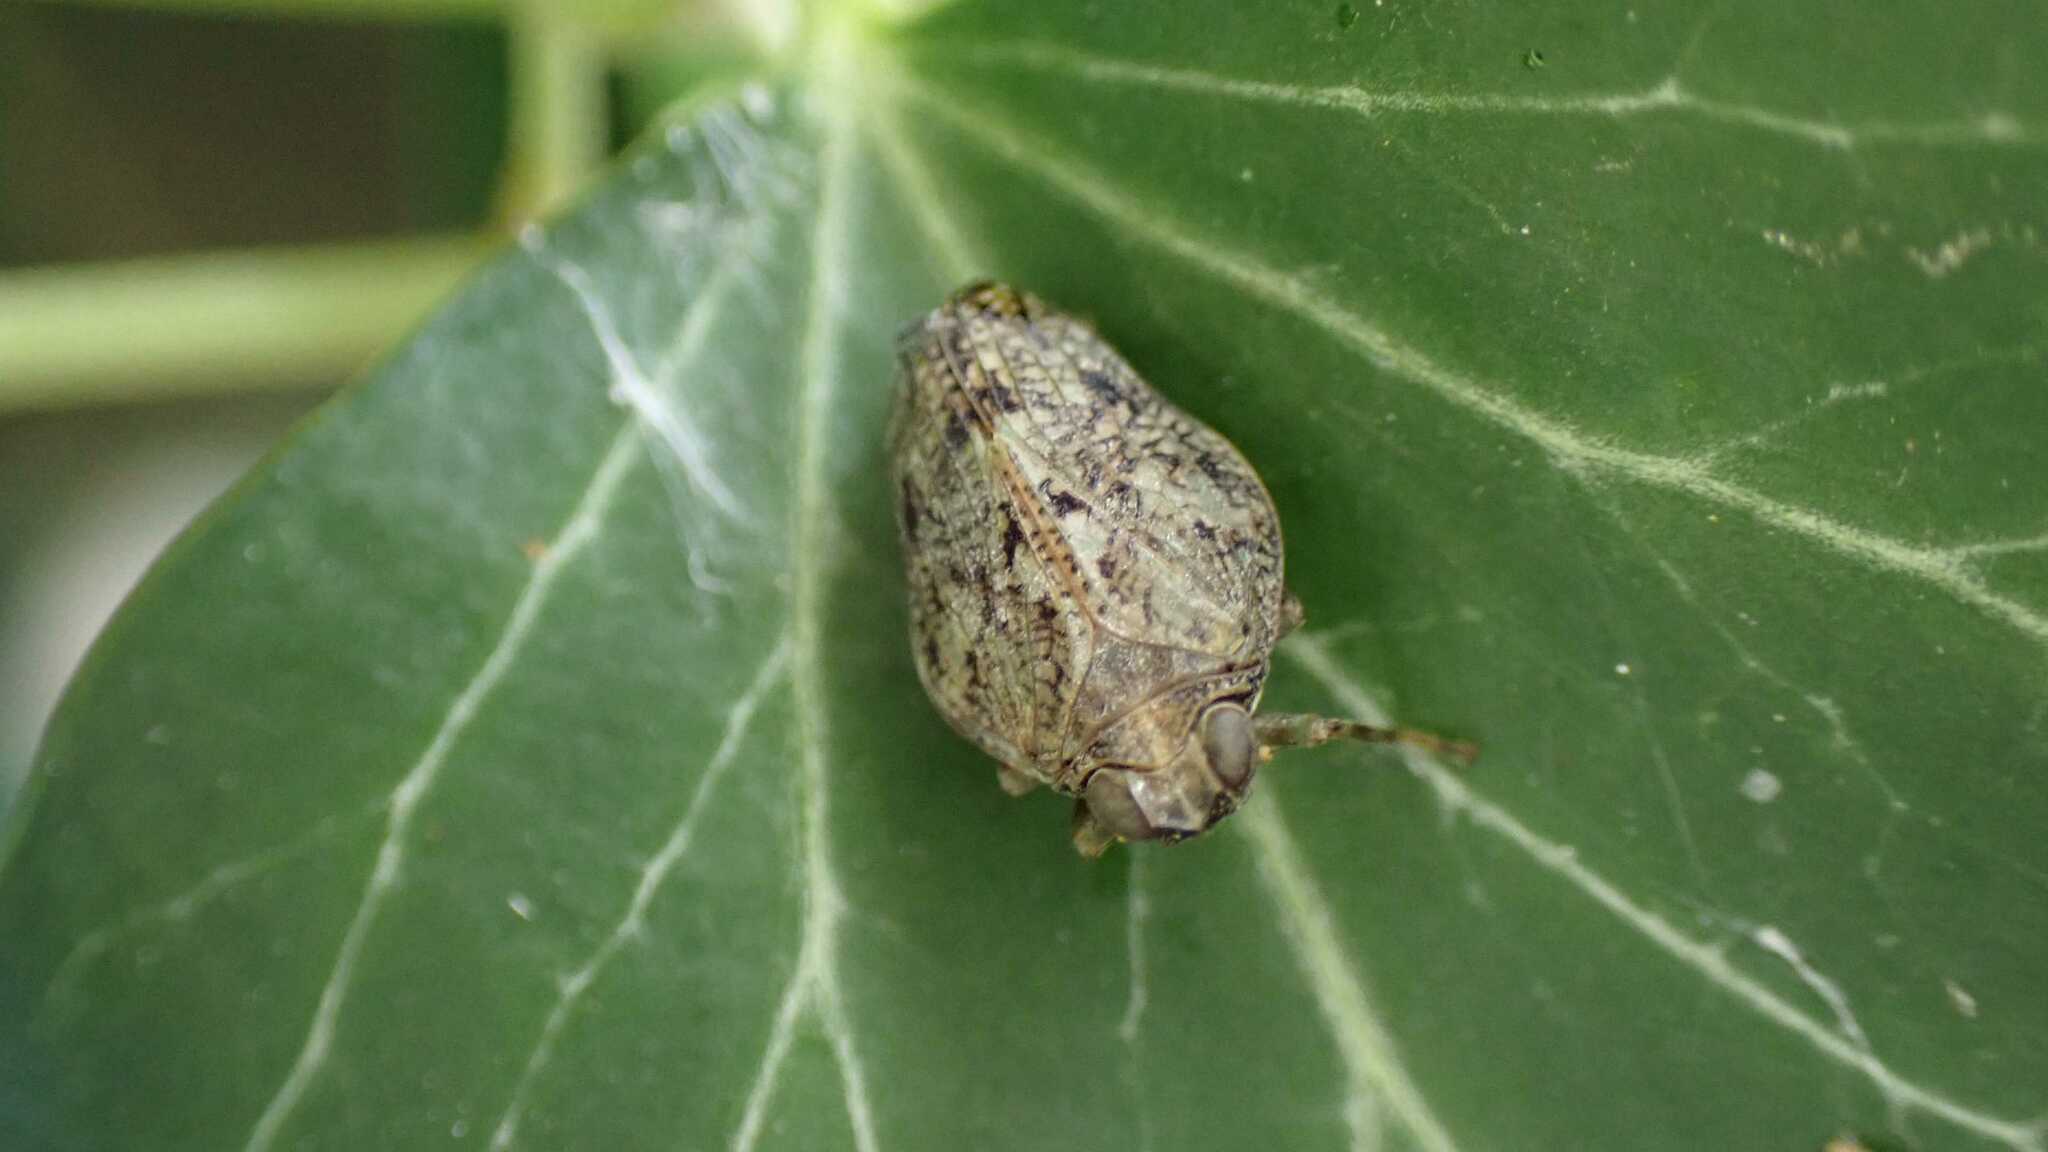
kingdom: Animalia
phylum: Arthropoda
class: Insecta
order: Hemiptera
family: Issidae
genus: Issus
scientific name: Issus coleoptratus
